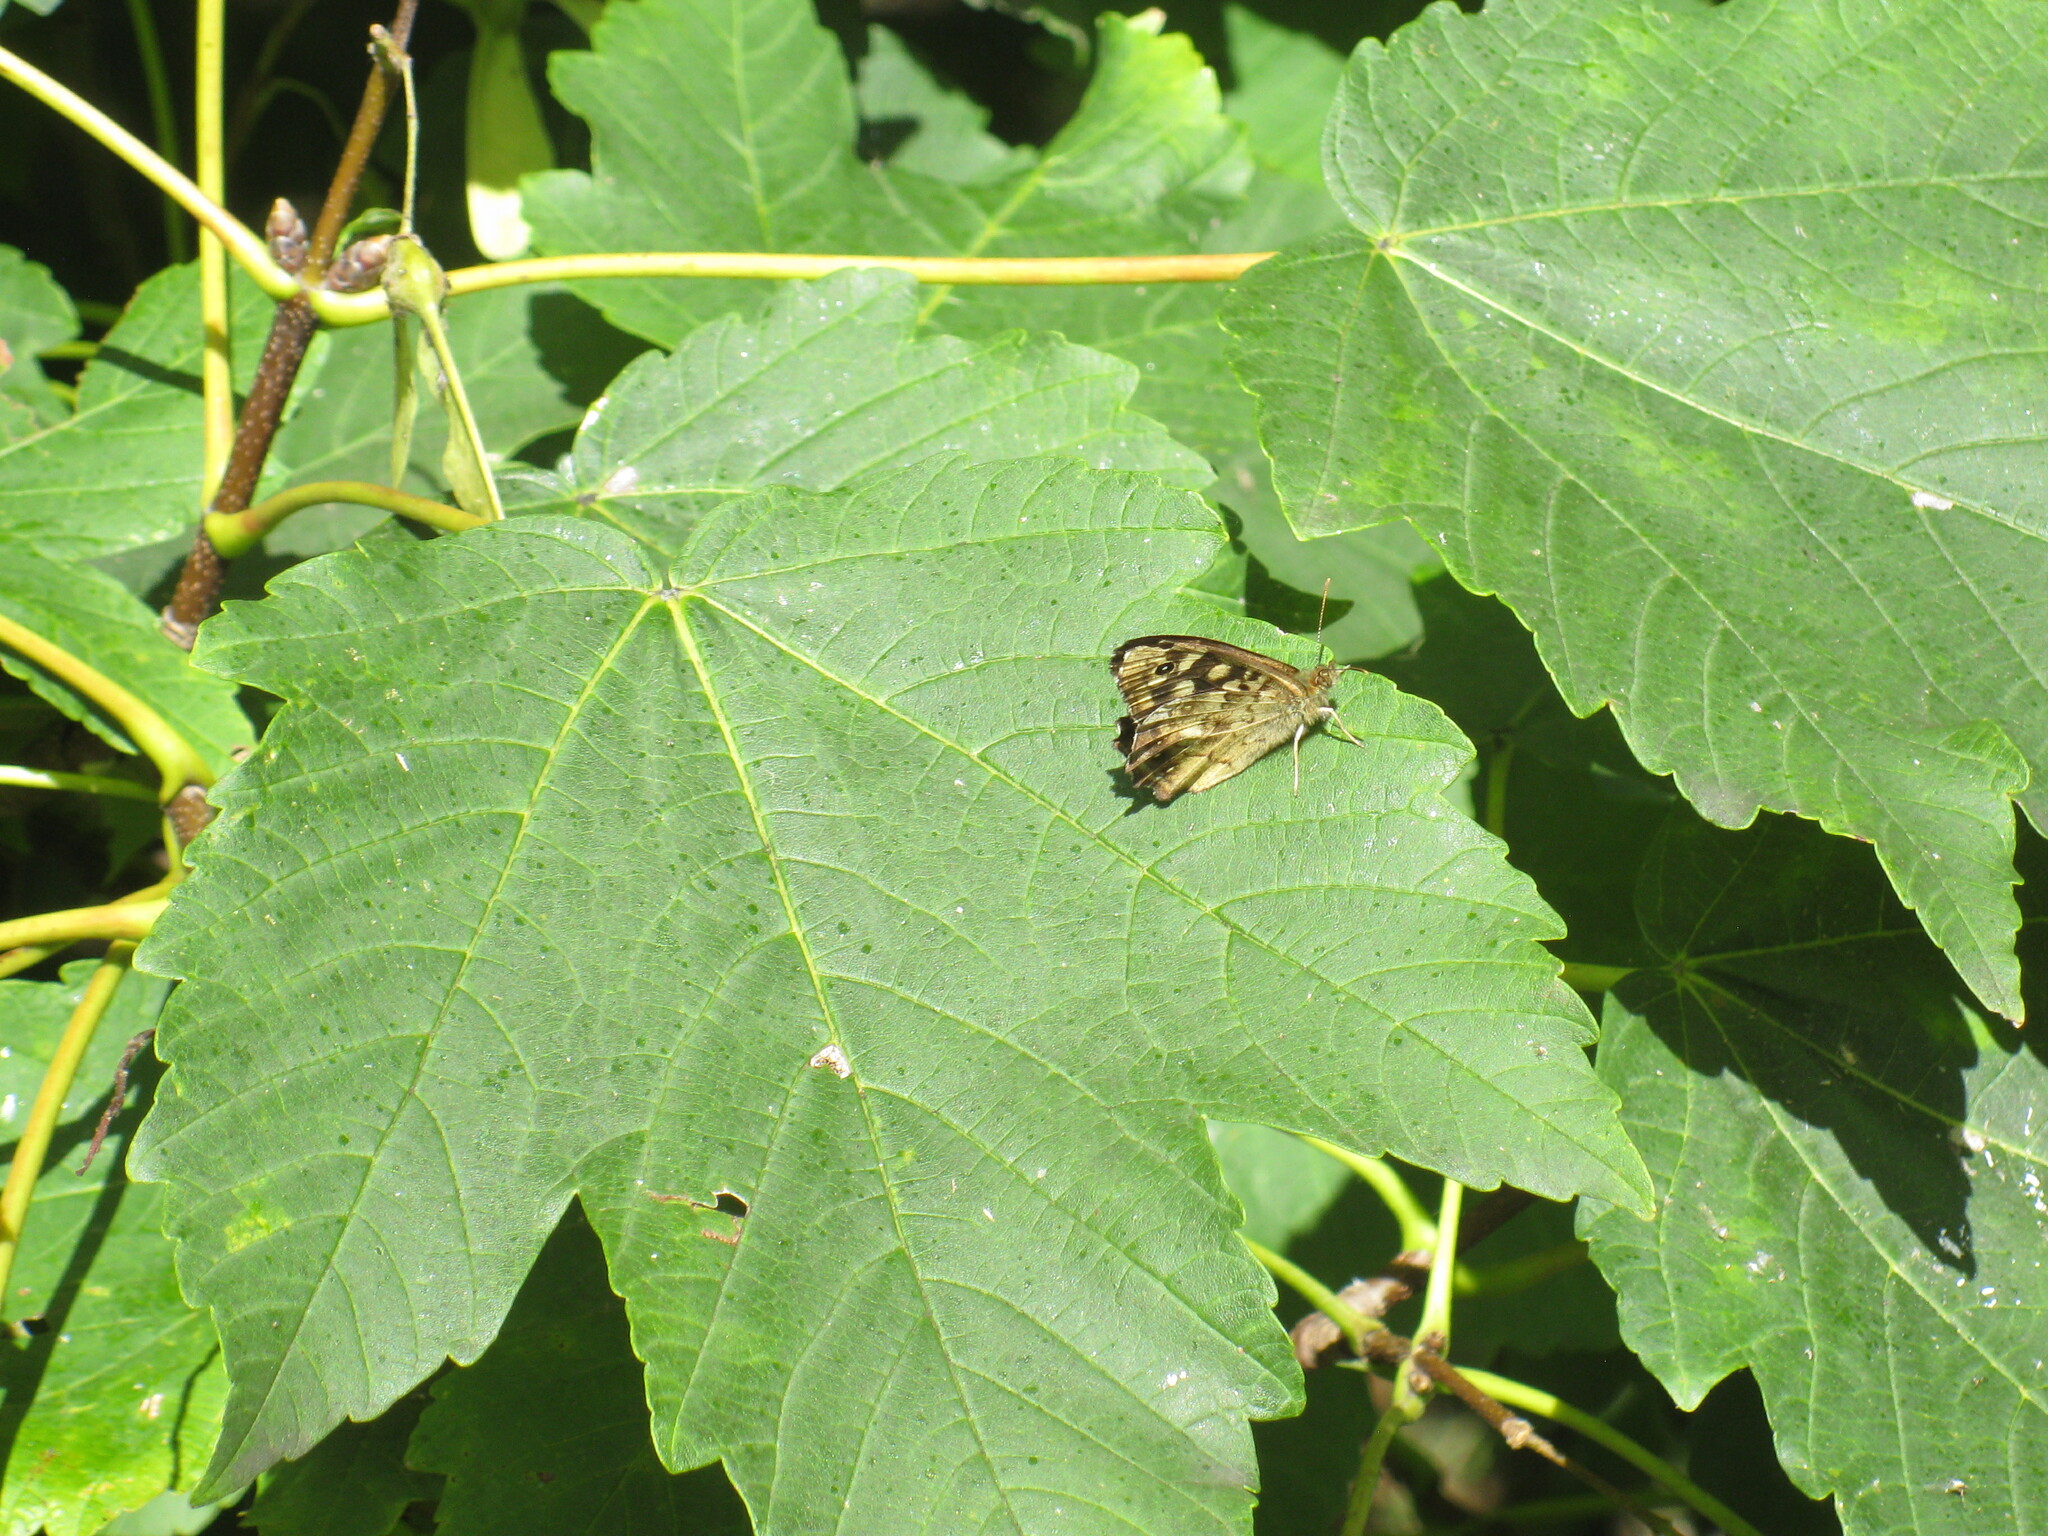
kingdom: Animalia
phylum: Arthropoda
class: Insecta
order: Lepidoptera
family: Nymphalidae
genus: Pararge
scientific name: Pararge aegeria
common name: Speckled wood
